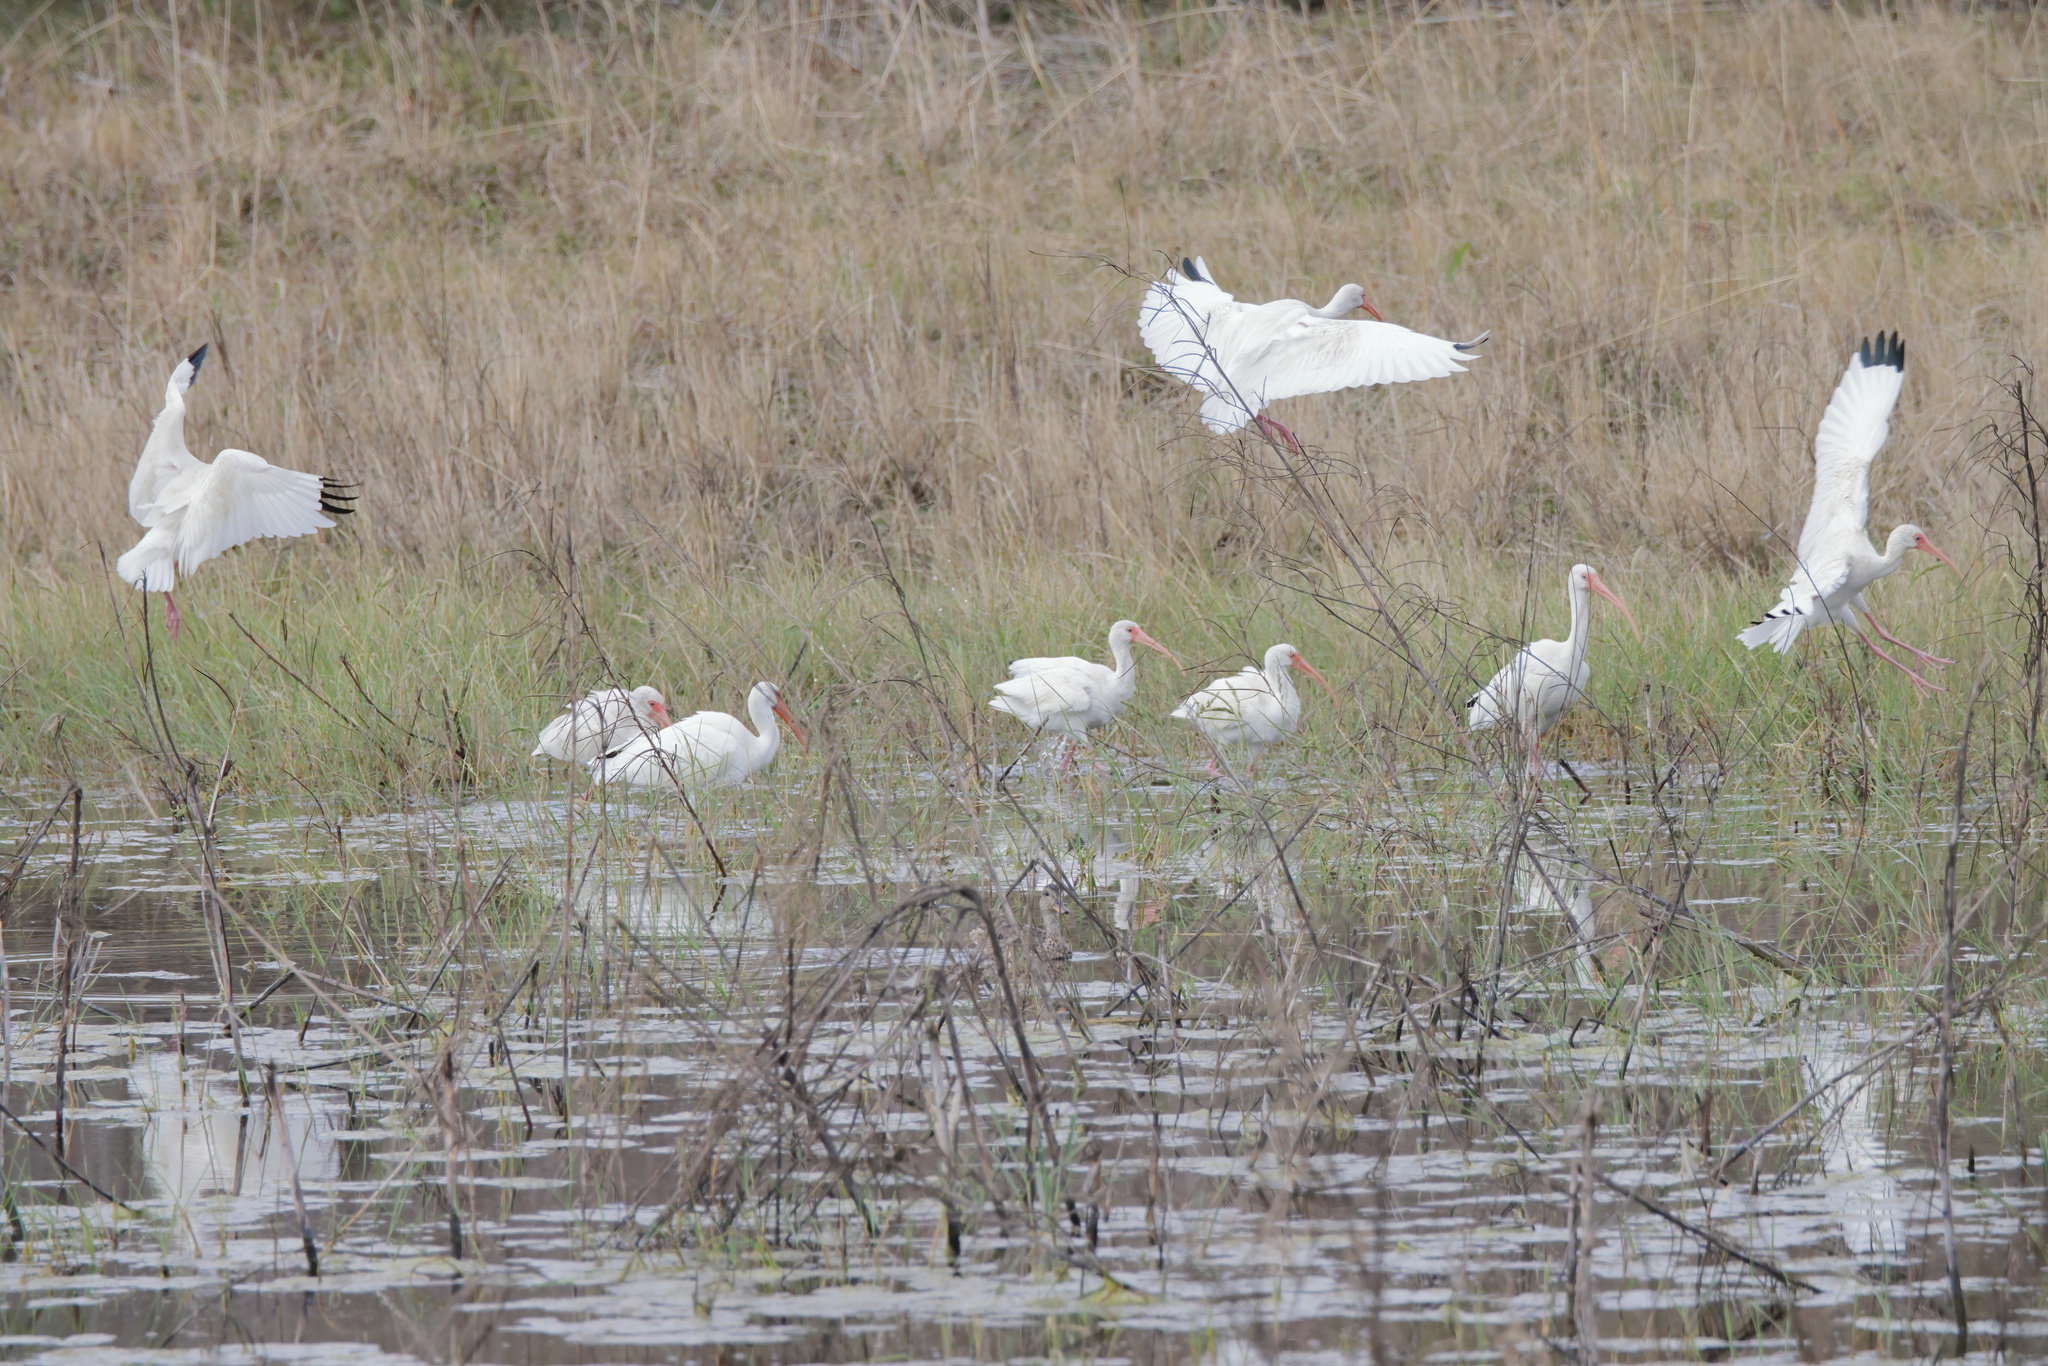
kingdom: Animalia
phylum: Chordata
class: Aves
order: Pelecaniformes
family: Threskiornithidae
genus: Eudocimus
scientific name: Eudocimus albus
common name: White ibis
